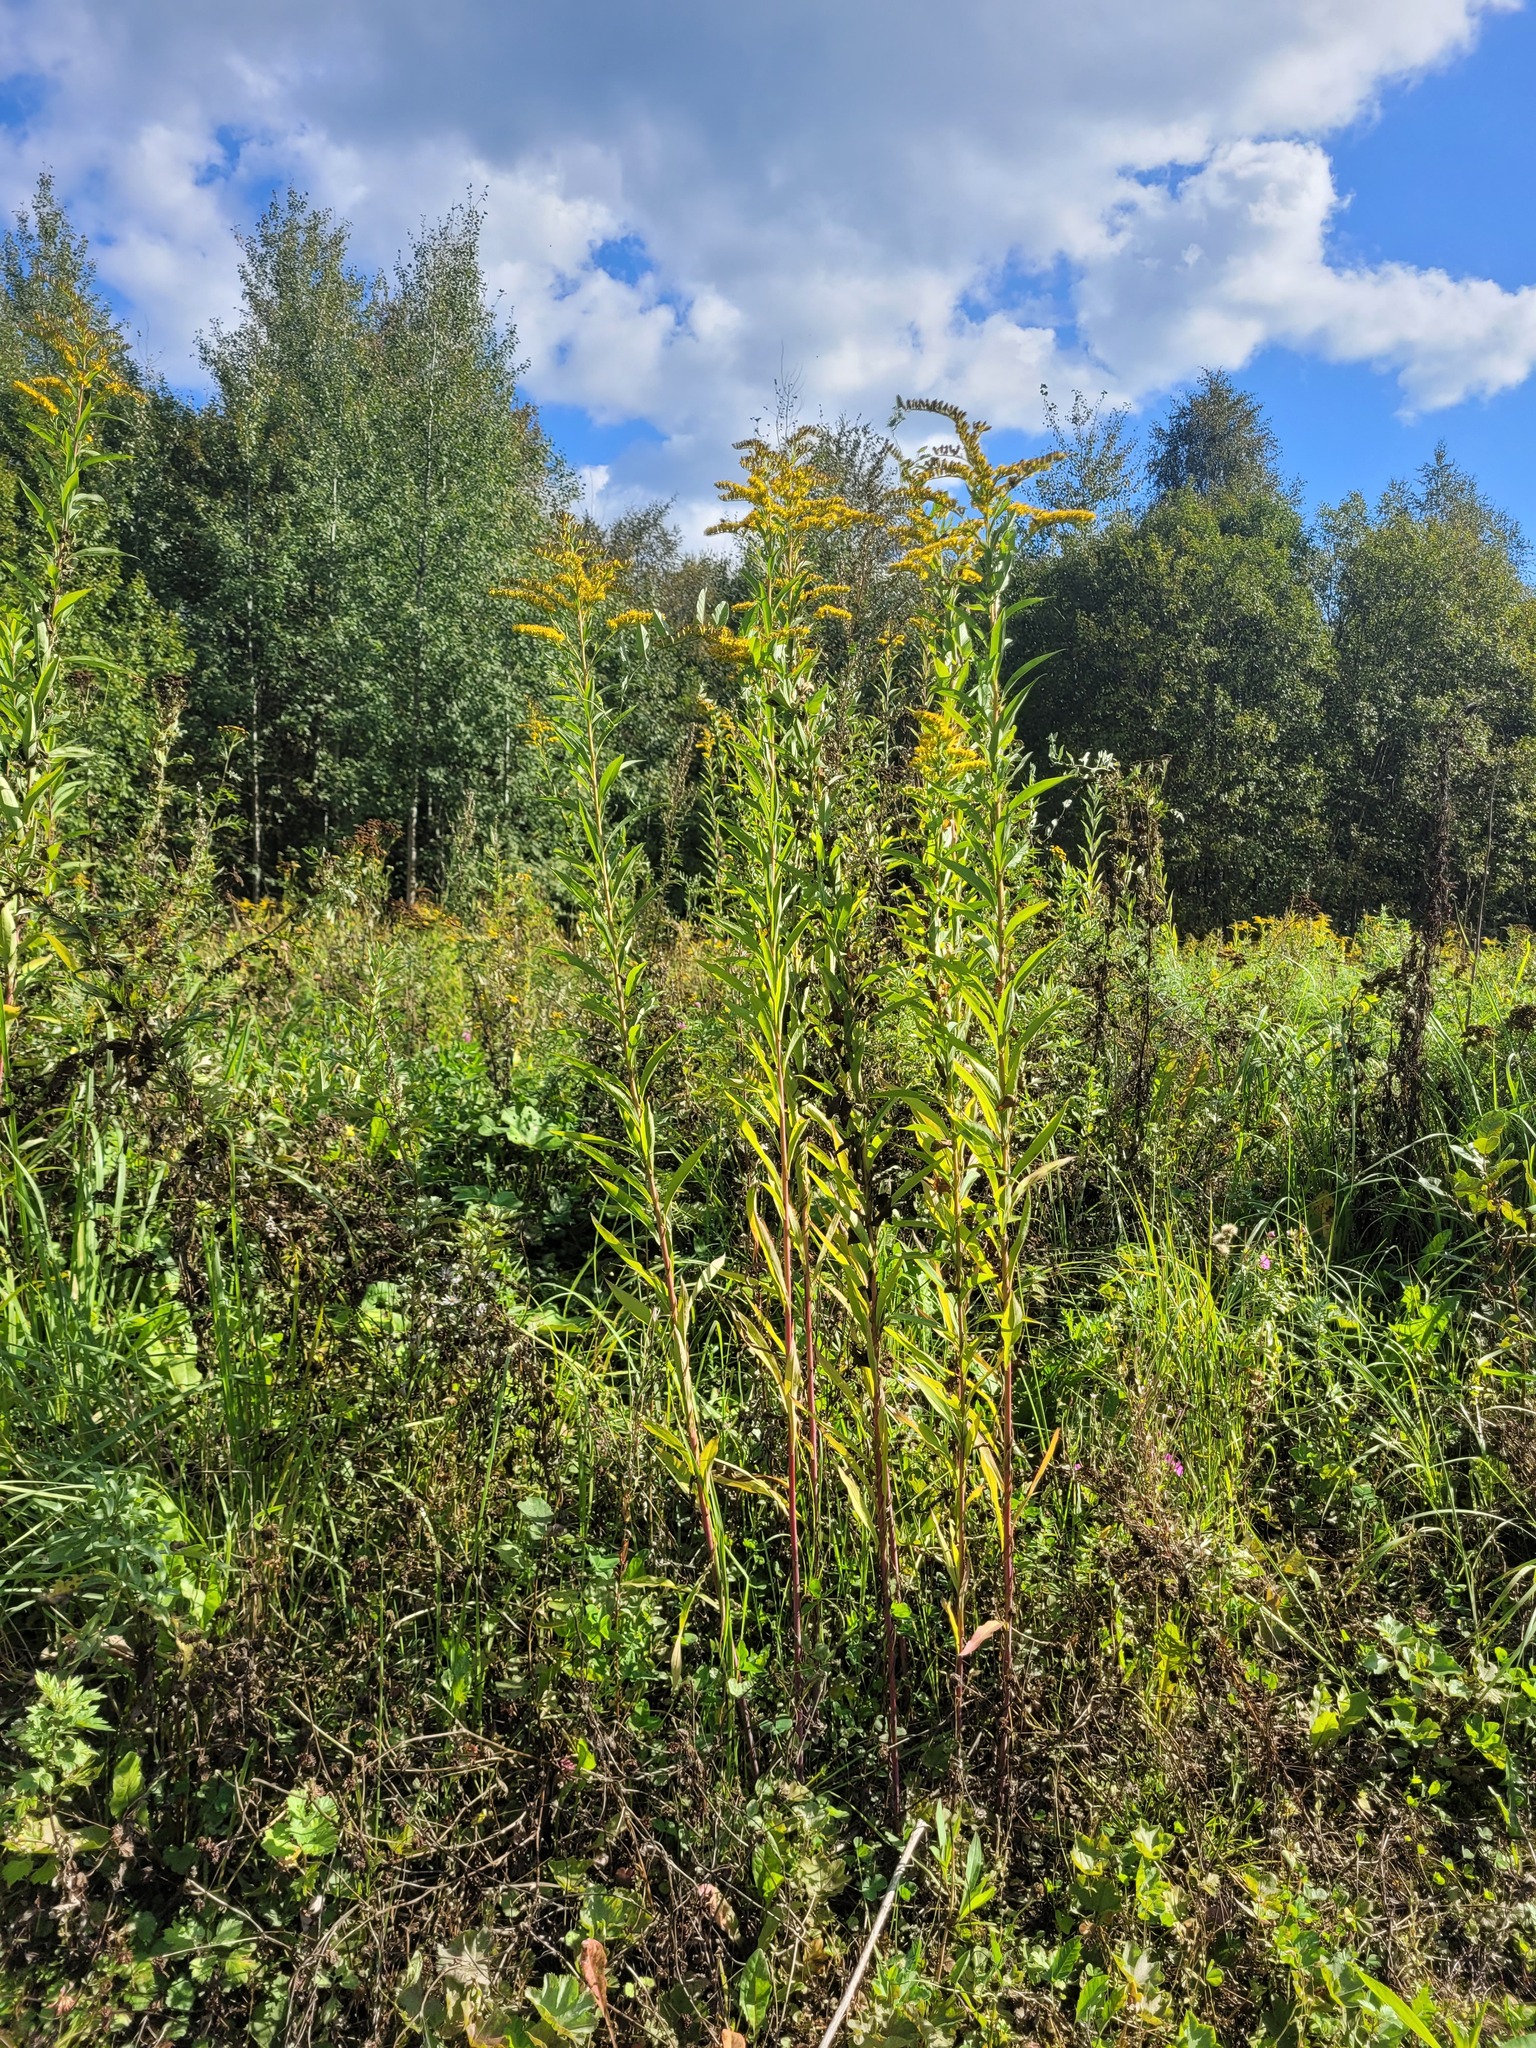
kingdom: Plantae
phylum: Tracheophyta
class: Magnoliopsida
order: Asterales
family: Asteraceae
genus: Solidago
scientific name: Solidago gigantea
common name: Giant goldenrod
